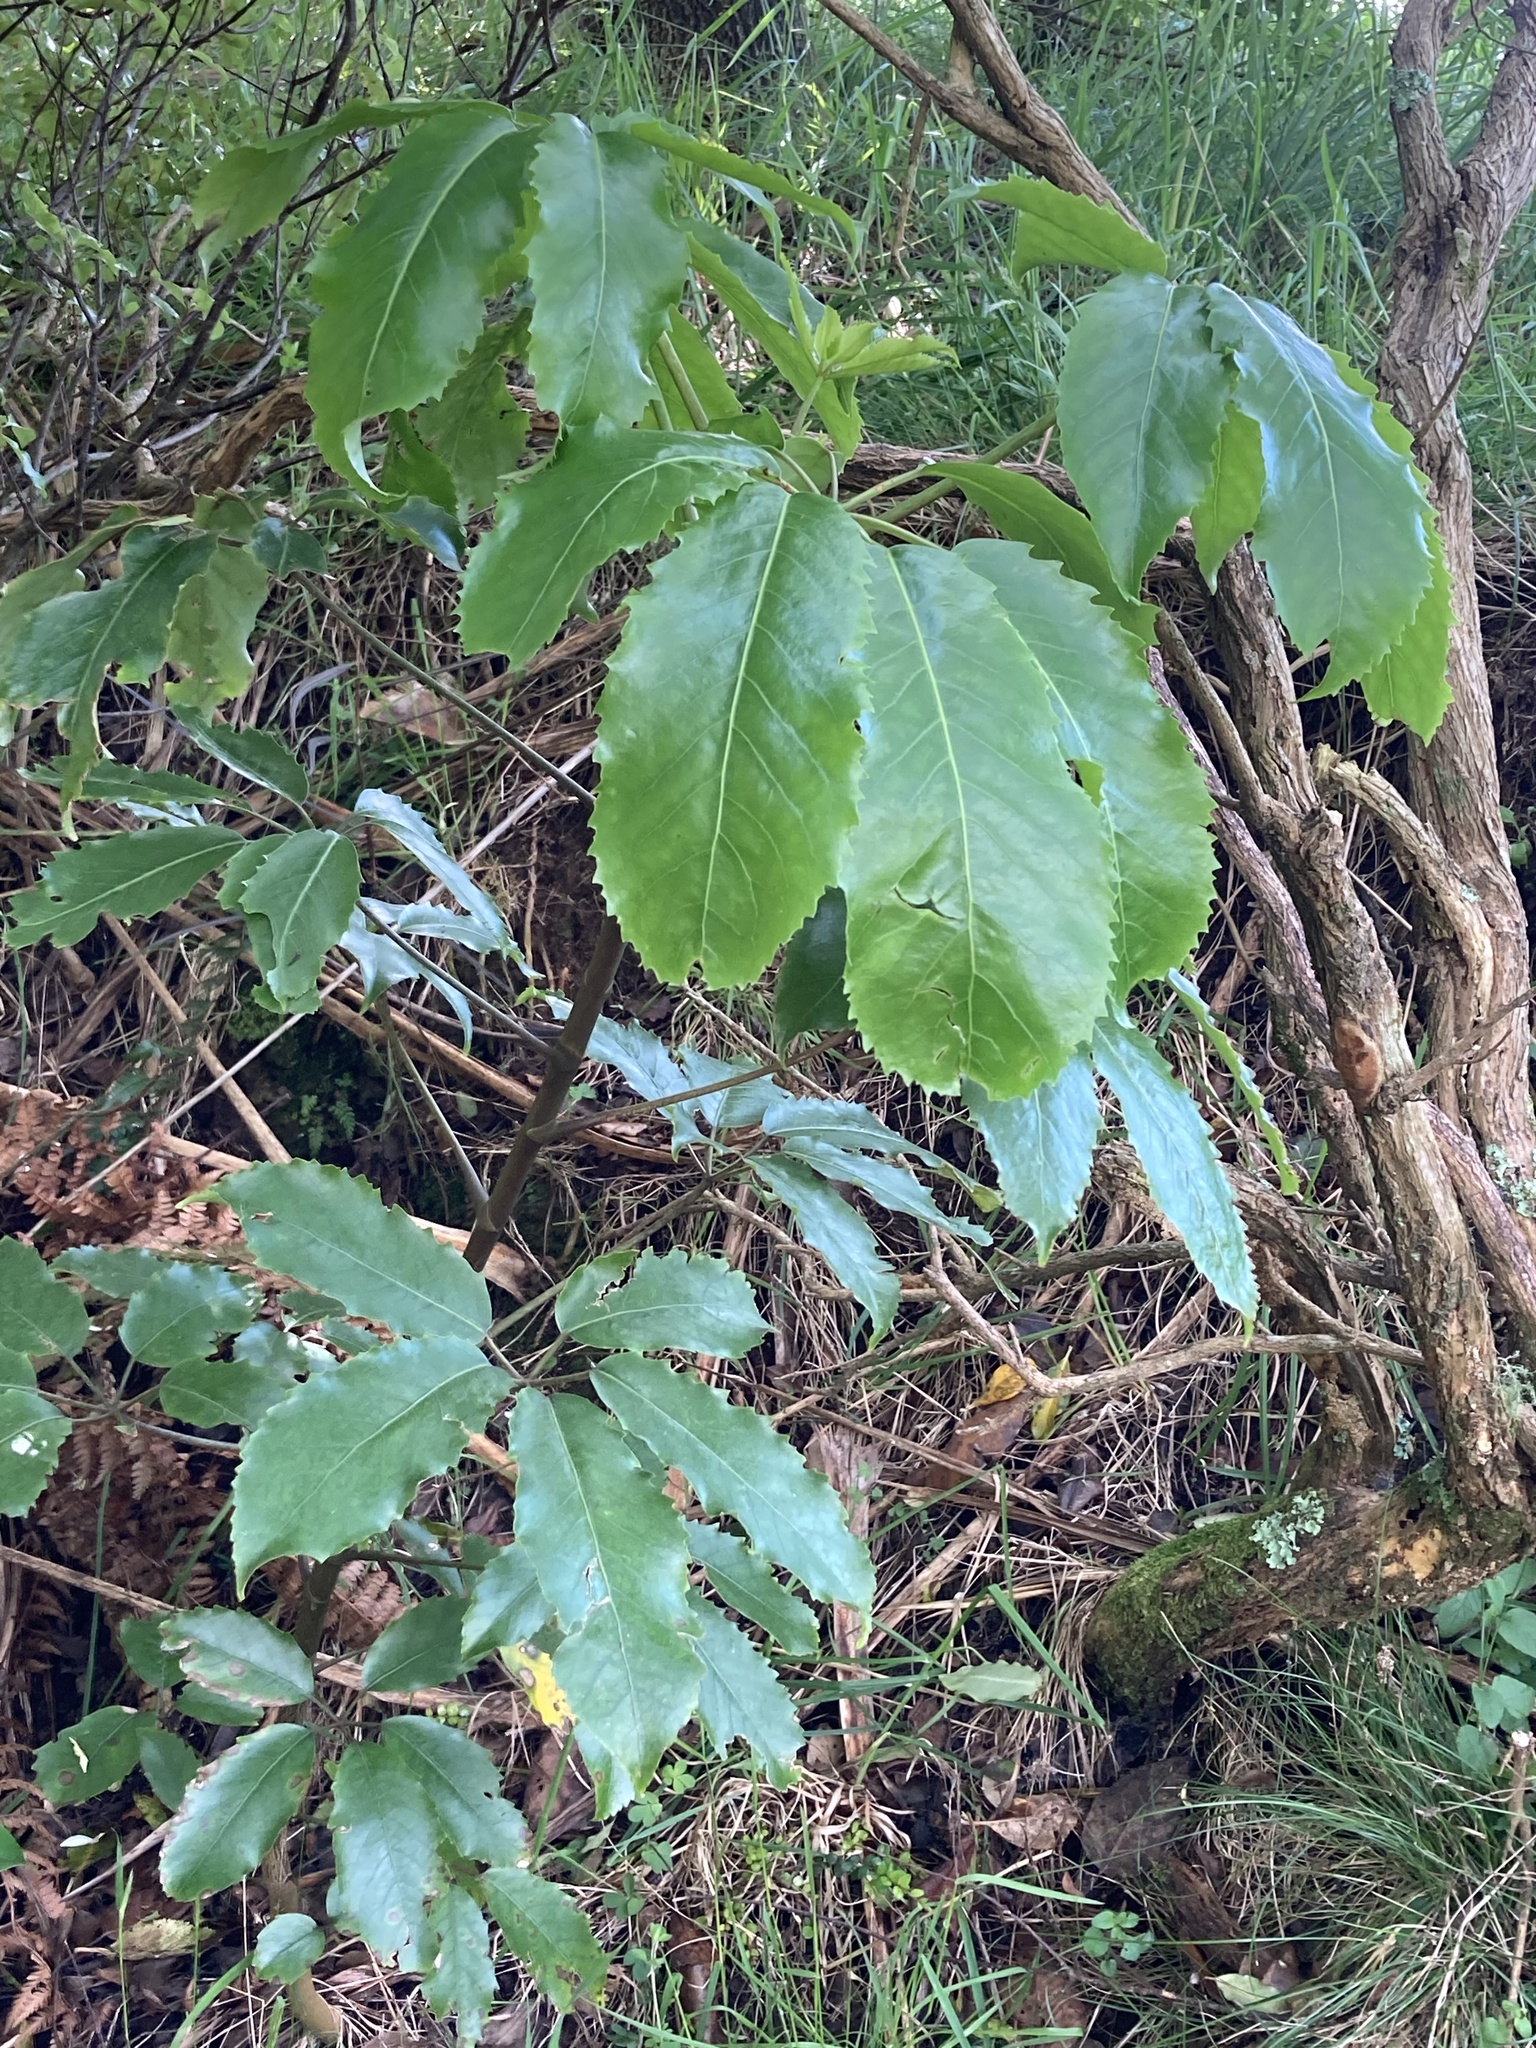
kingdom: Plantae
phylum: Tracheophyta
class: Magnoliopsida
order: Apiales
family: Araliaceae
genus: Neopanax
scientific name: Neopanax arboreus
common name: Five-fingers
